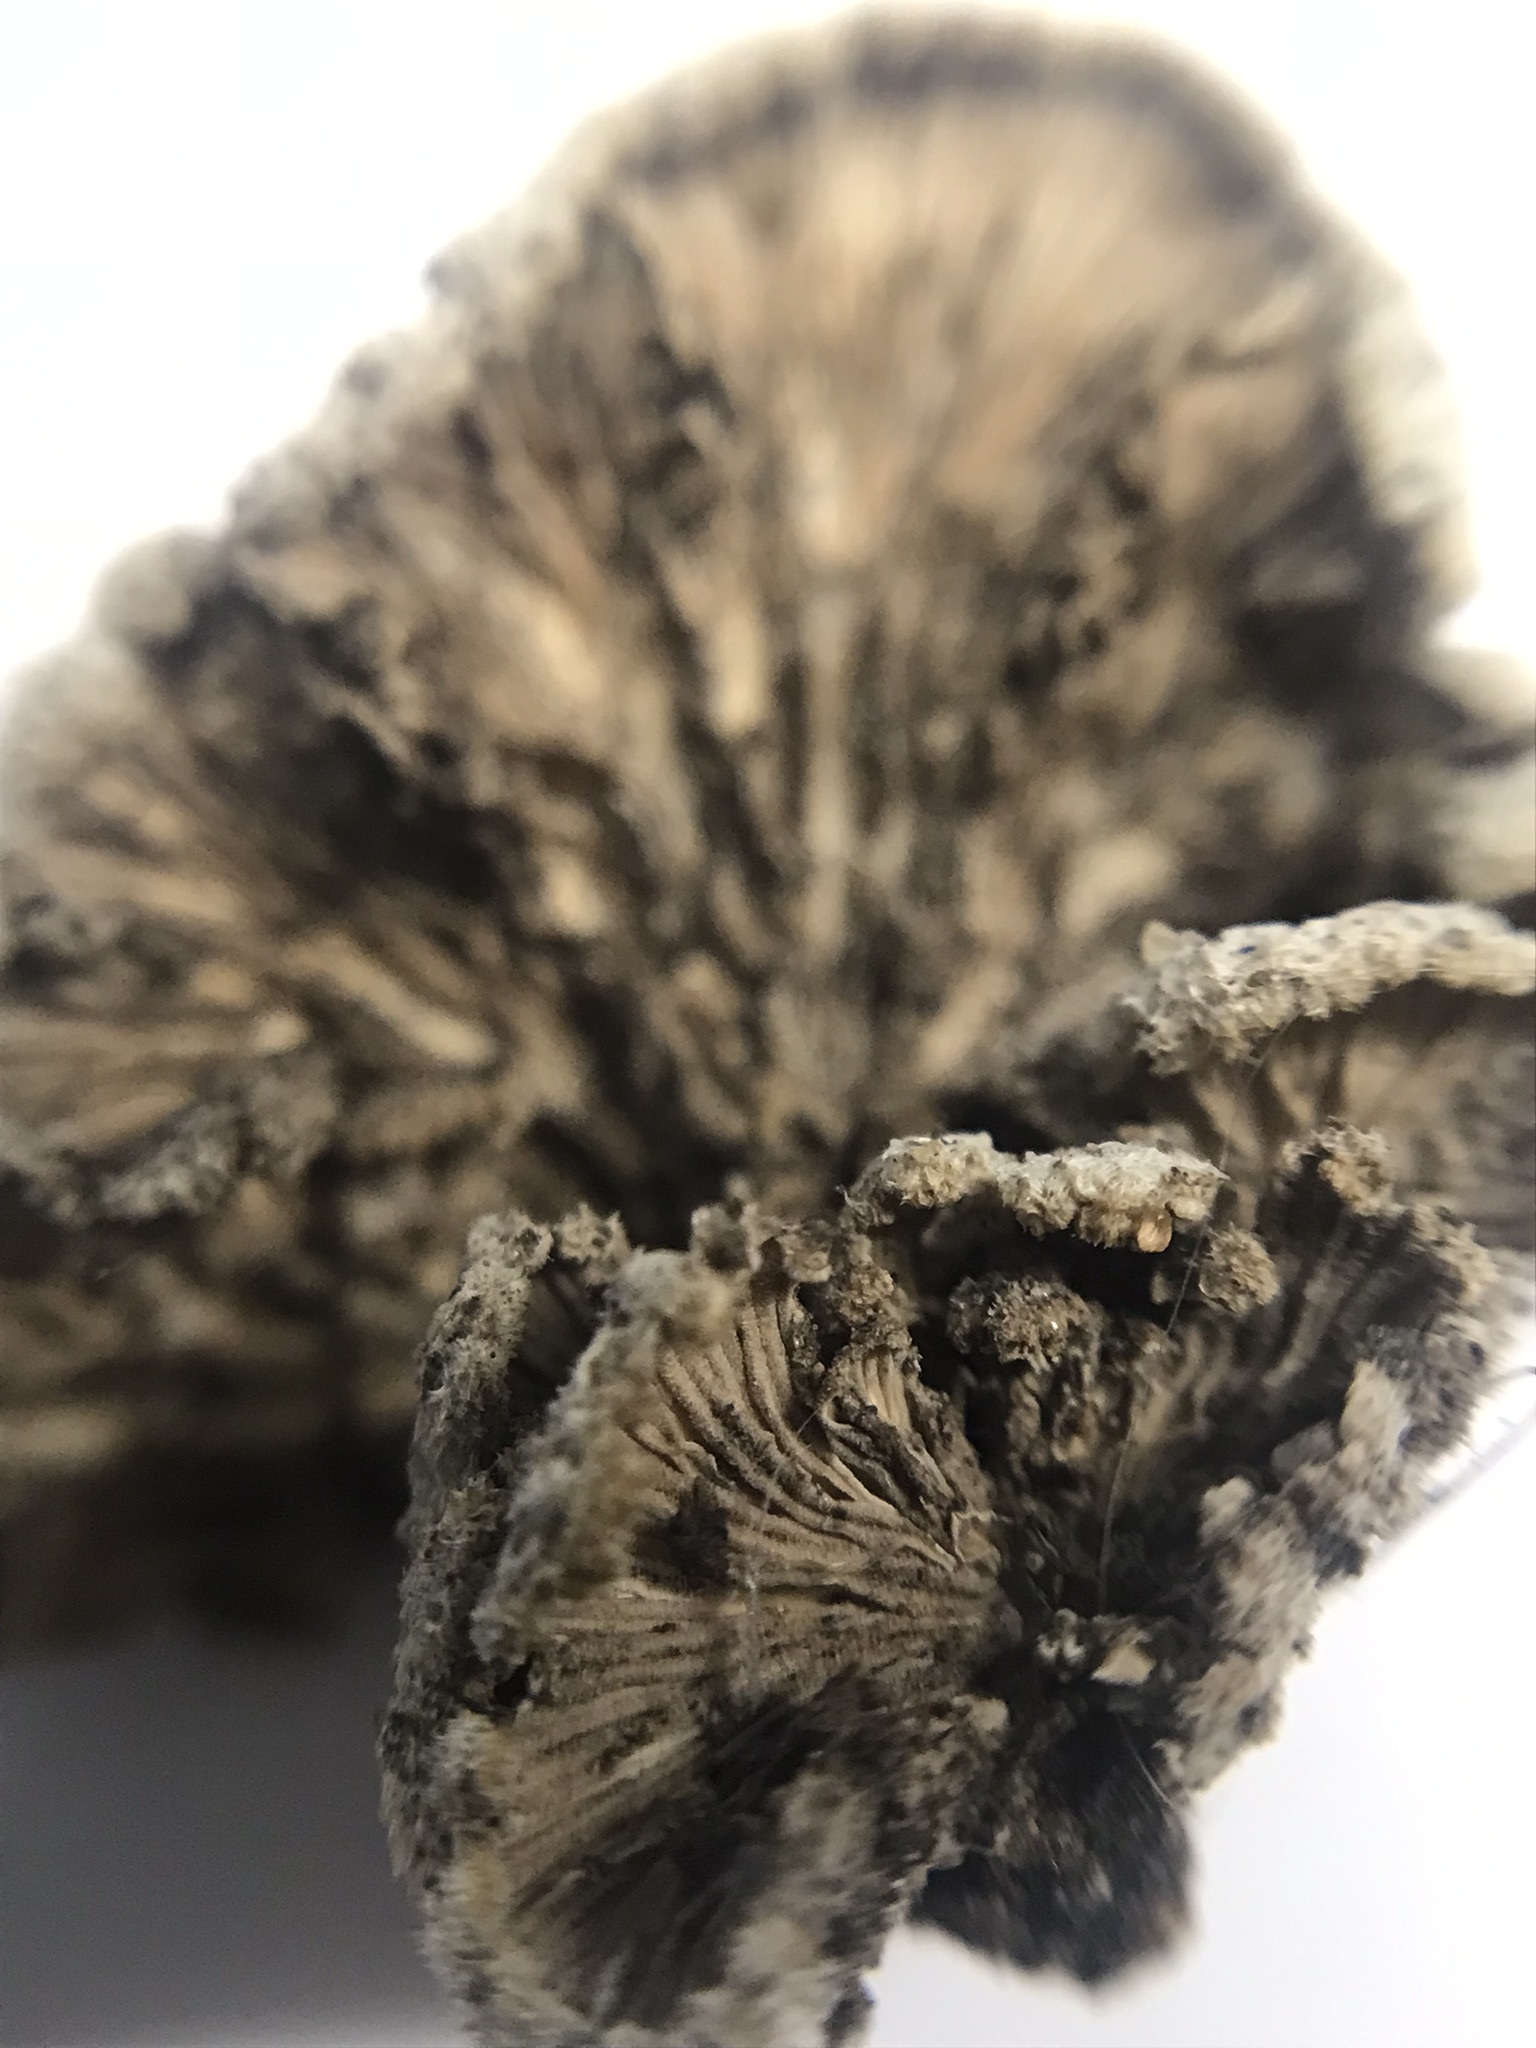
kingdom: Fungi
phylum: Basidiomycota
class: Agaricomycetes
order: Agaricales
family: Schizophyllaceae
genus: Schizophyllum
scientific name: Schizophyllum commune
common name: Common porecrust
